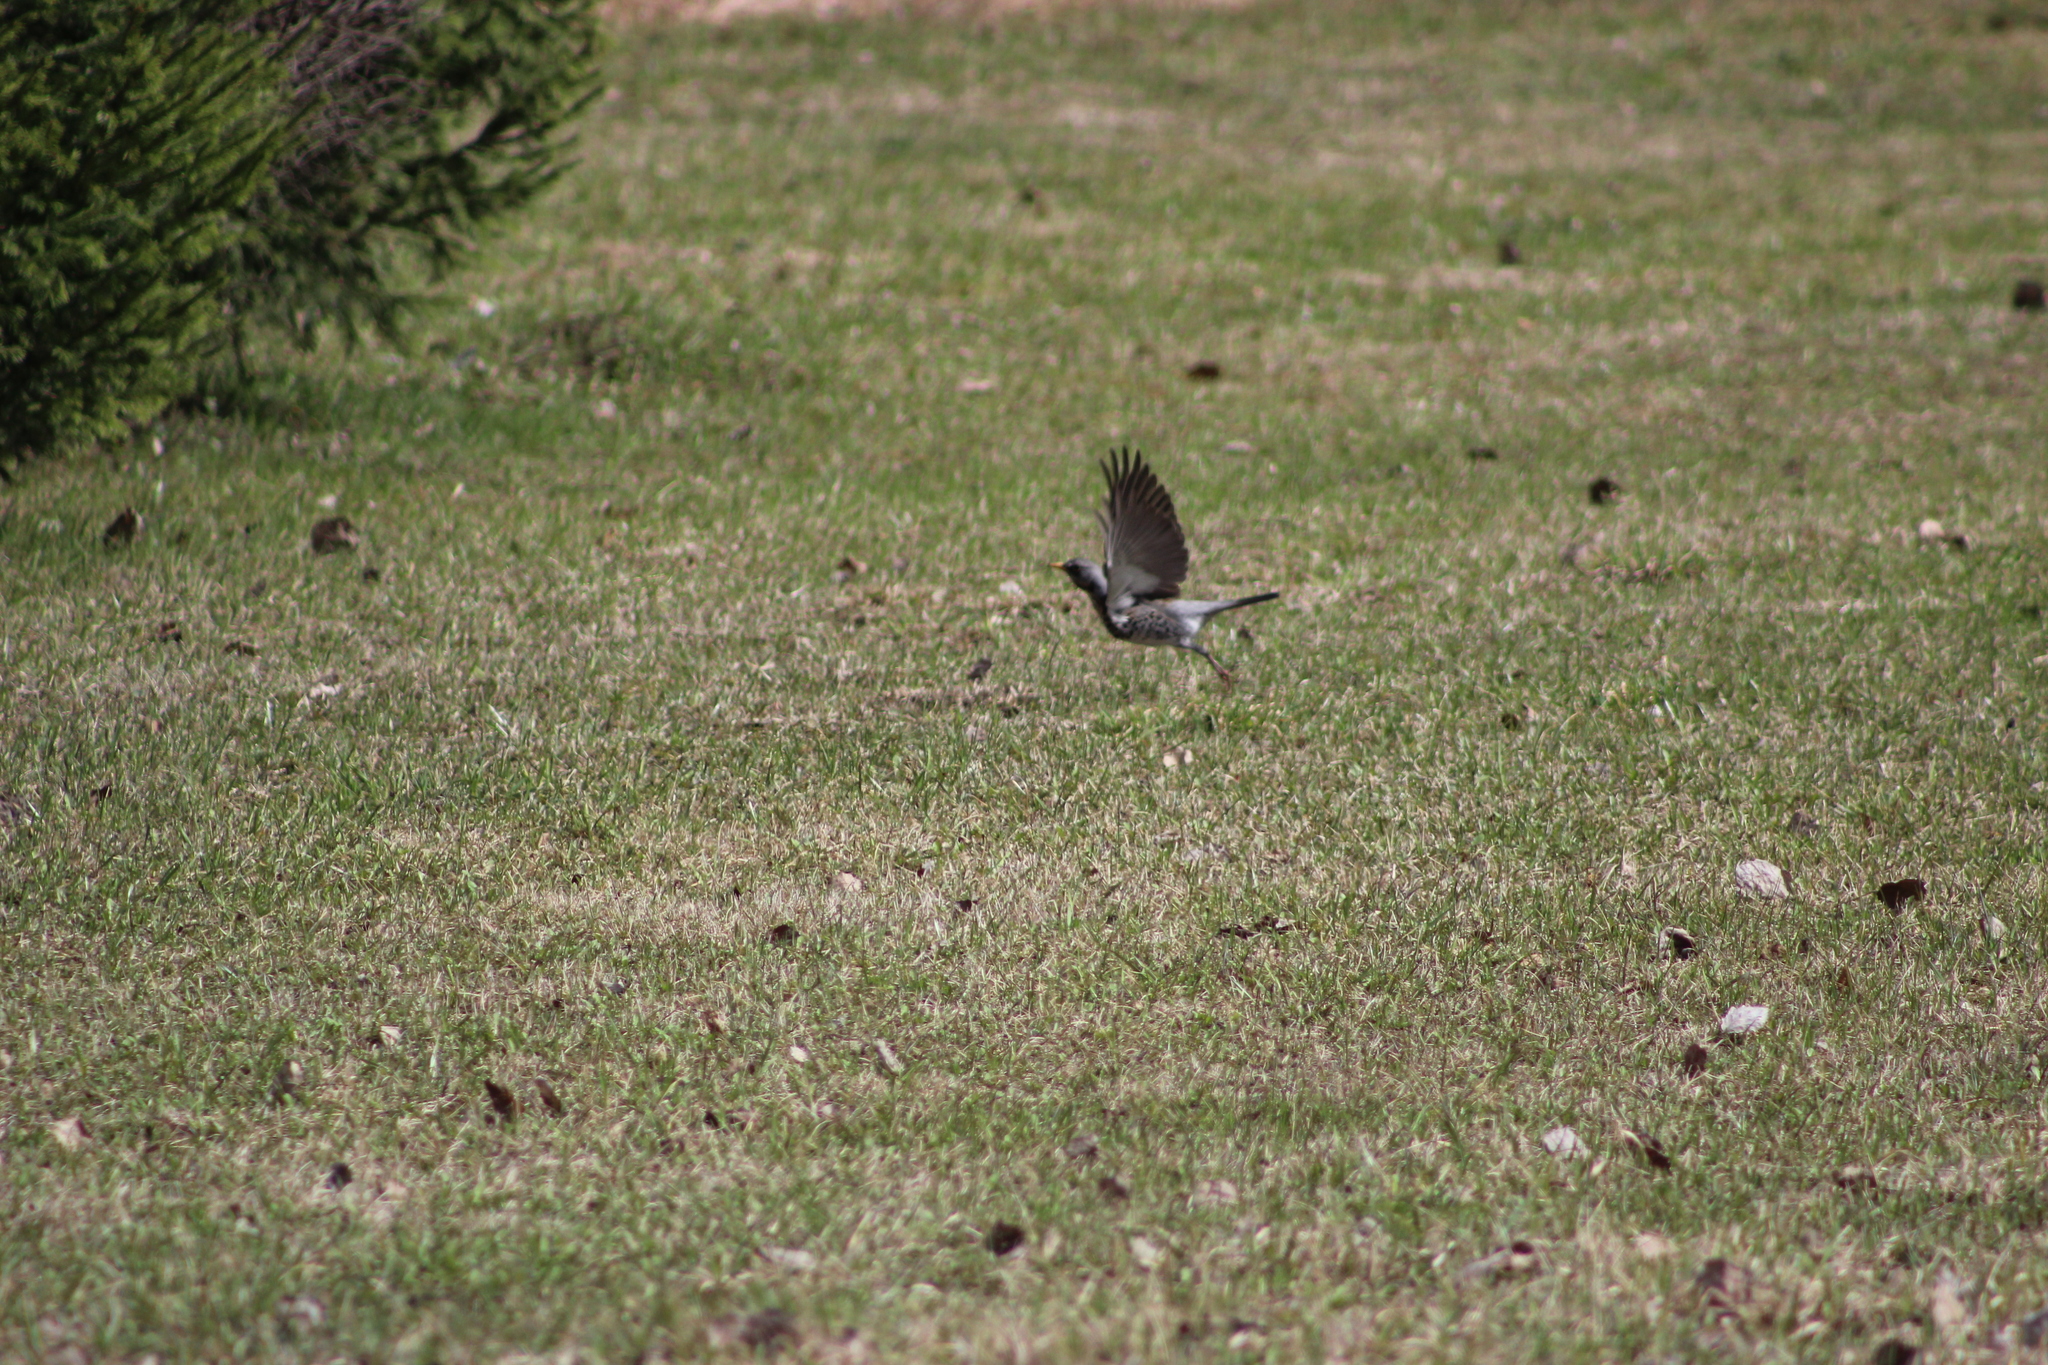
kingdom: Animalia
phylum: Chordata
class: Aves
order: Passeriformes
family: Turdidae
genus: Turdus
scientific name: Turdus pilaris
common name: Fieldfare
